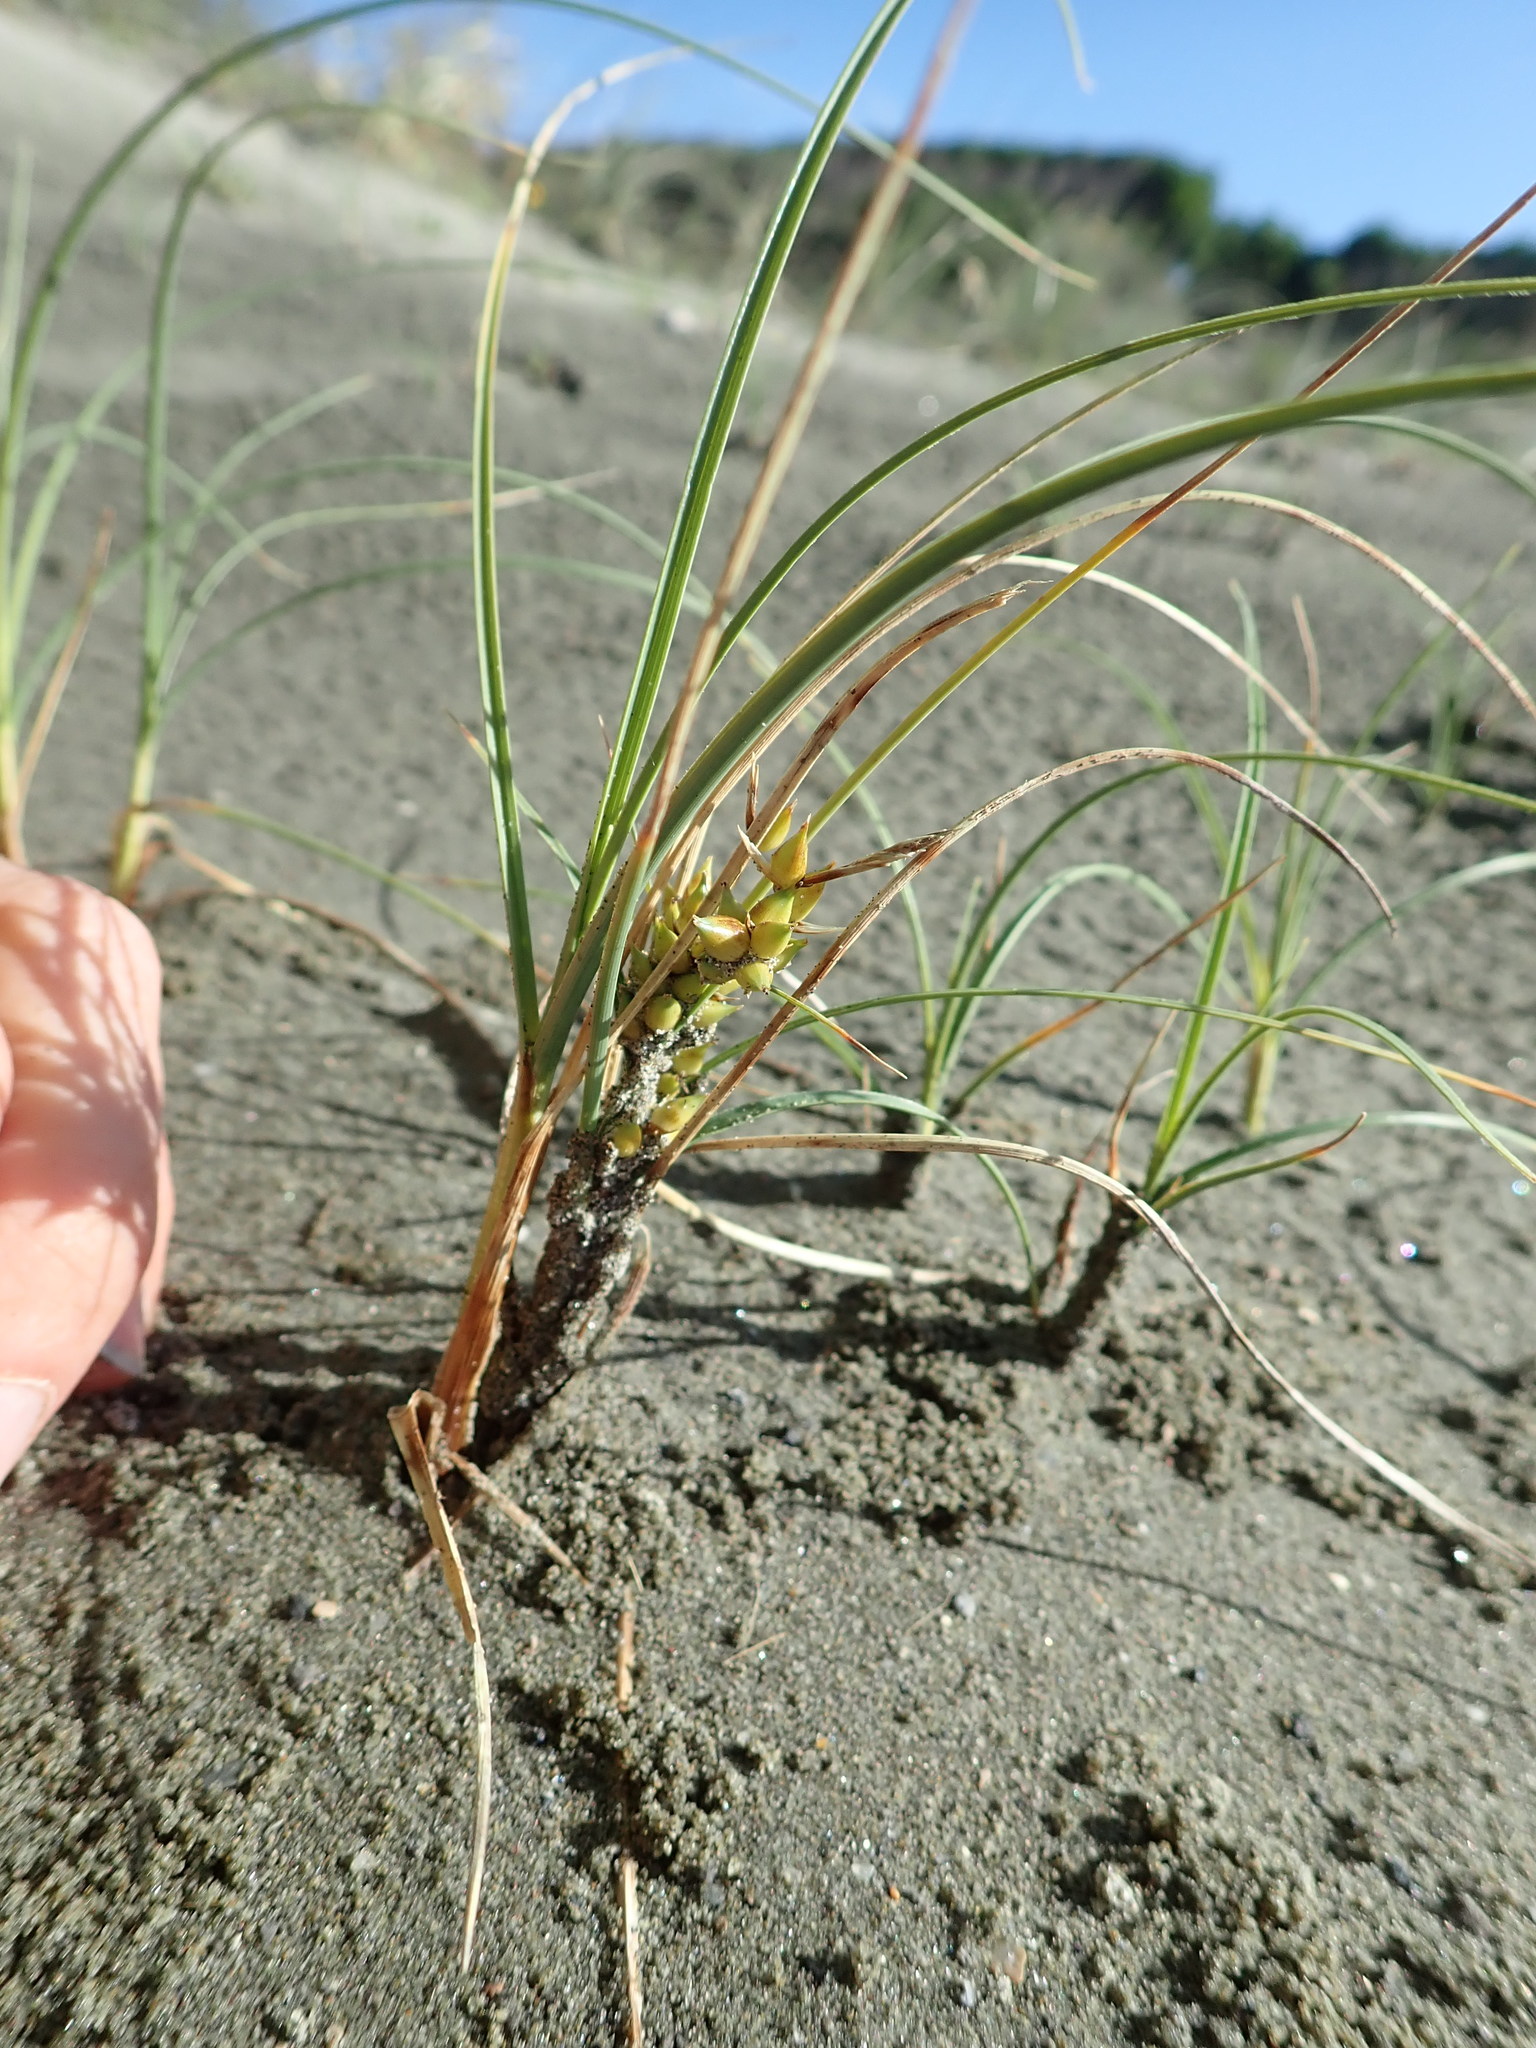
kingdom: Plantae
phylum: Tracheophyta
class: Liliopsida
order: Poales
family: Cyperaceae
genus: Carex
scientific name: Carex pumila
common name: Dwarf sedge
